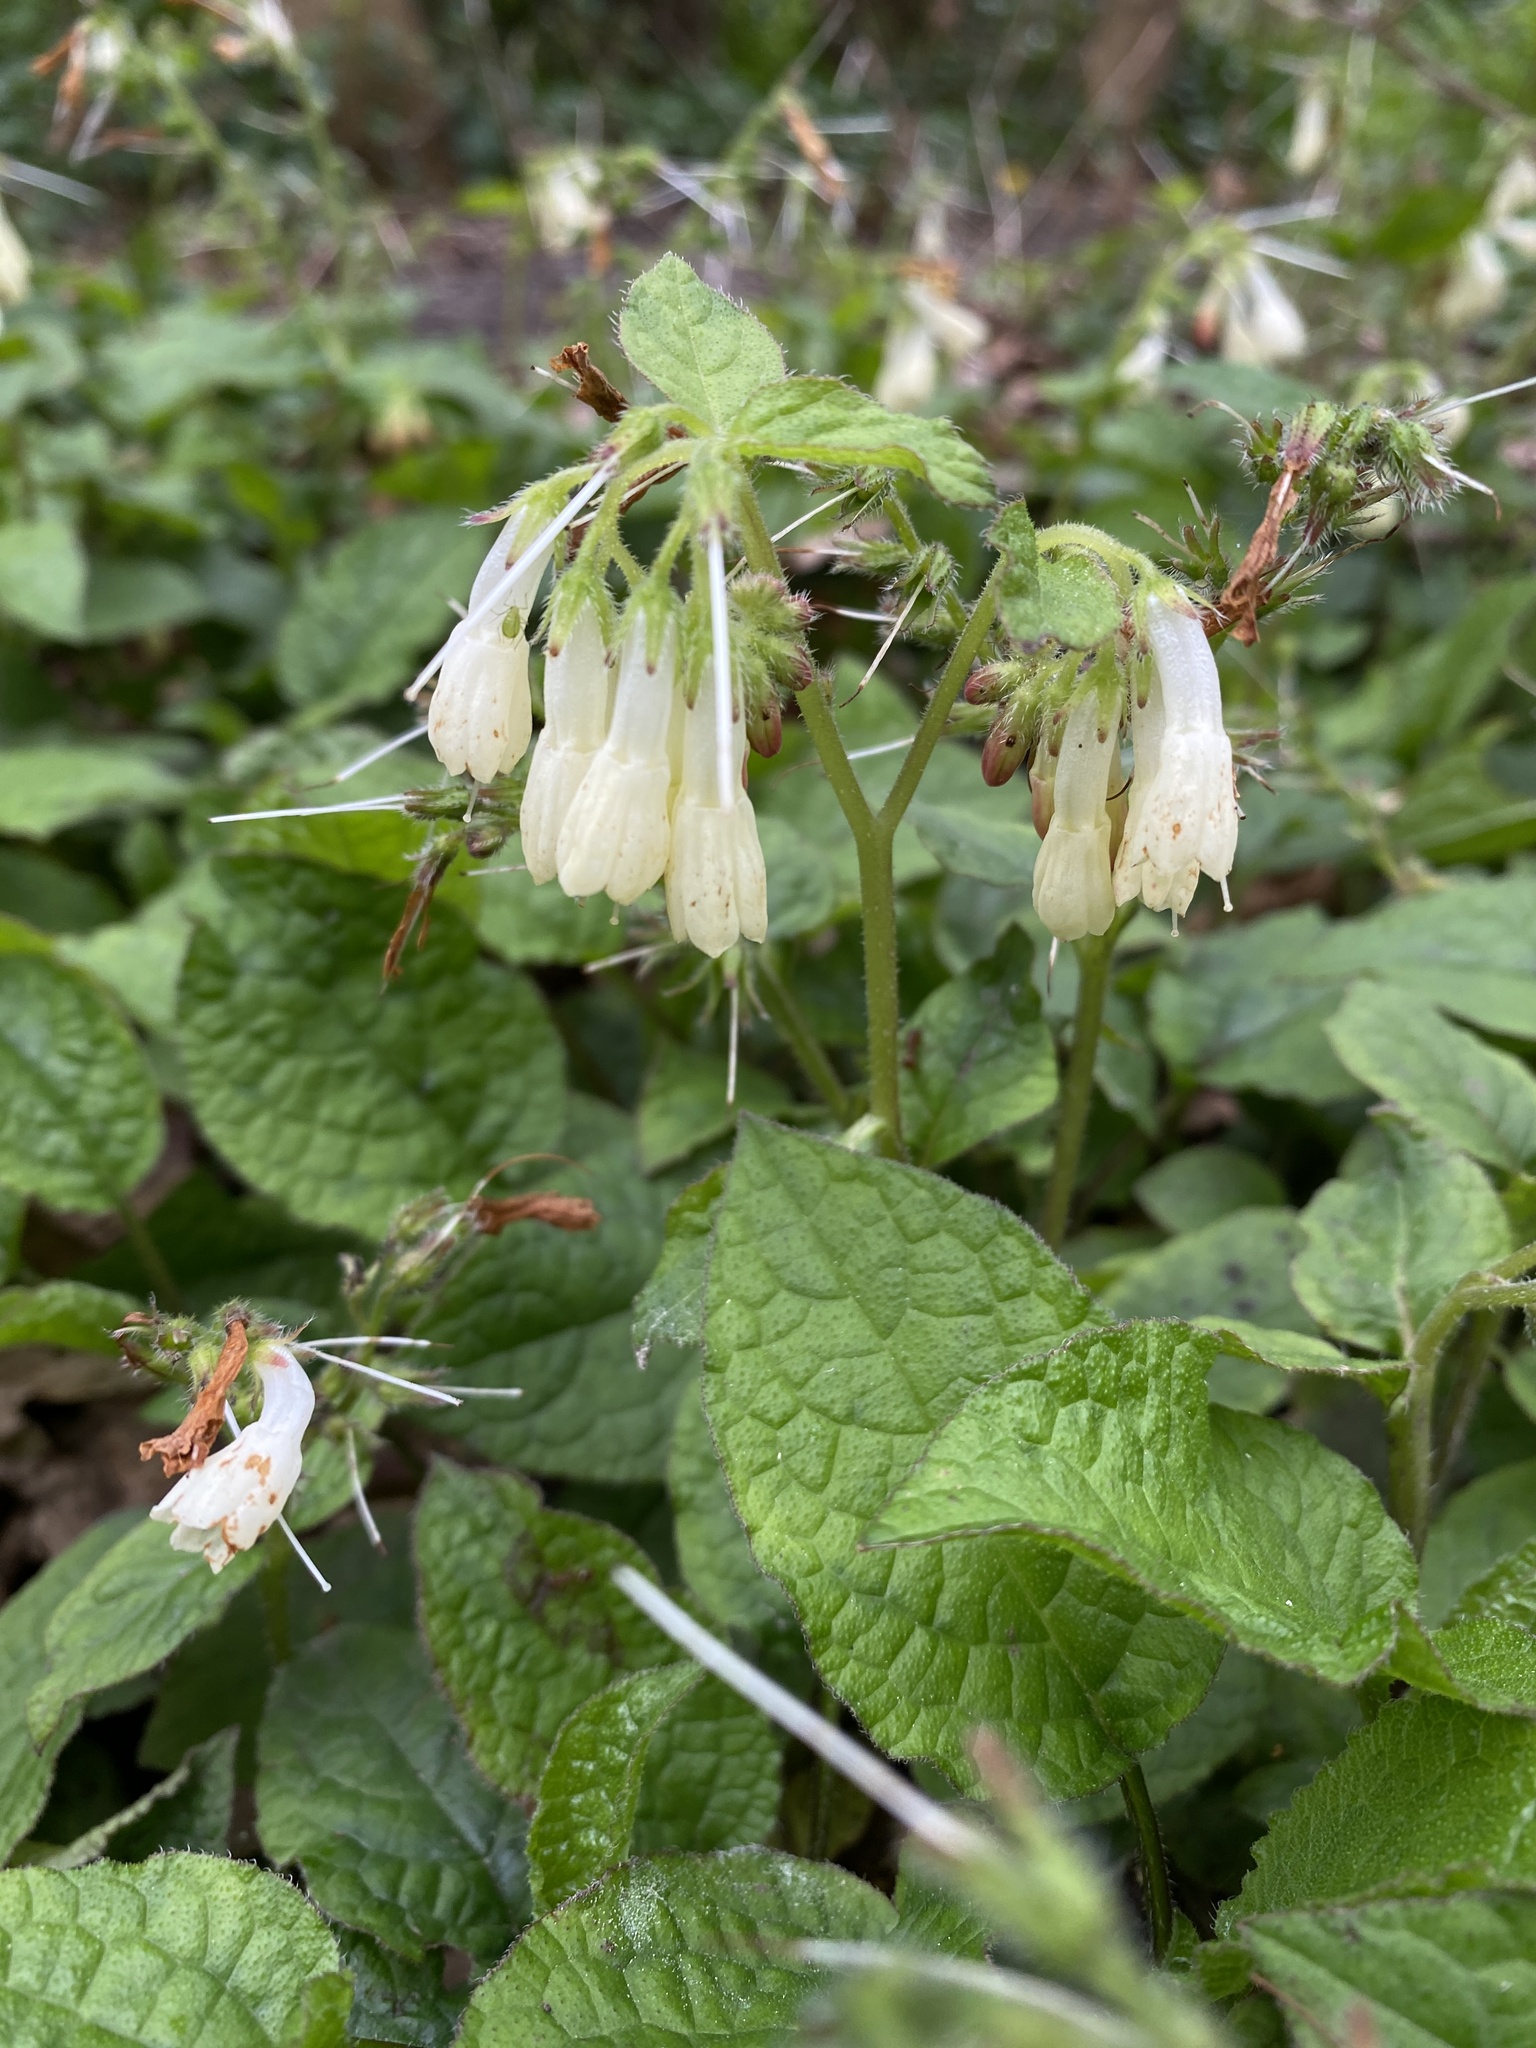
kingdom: Plantae
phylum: Tracheophyta
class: Magnoliopsida
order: Boraginales
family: Boraginaceae
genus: Symphytum
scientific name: Symphytum grandiflorum
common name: Creeping comfrey
